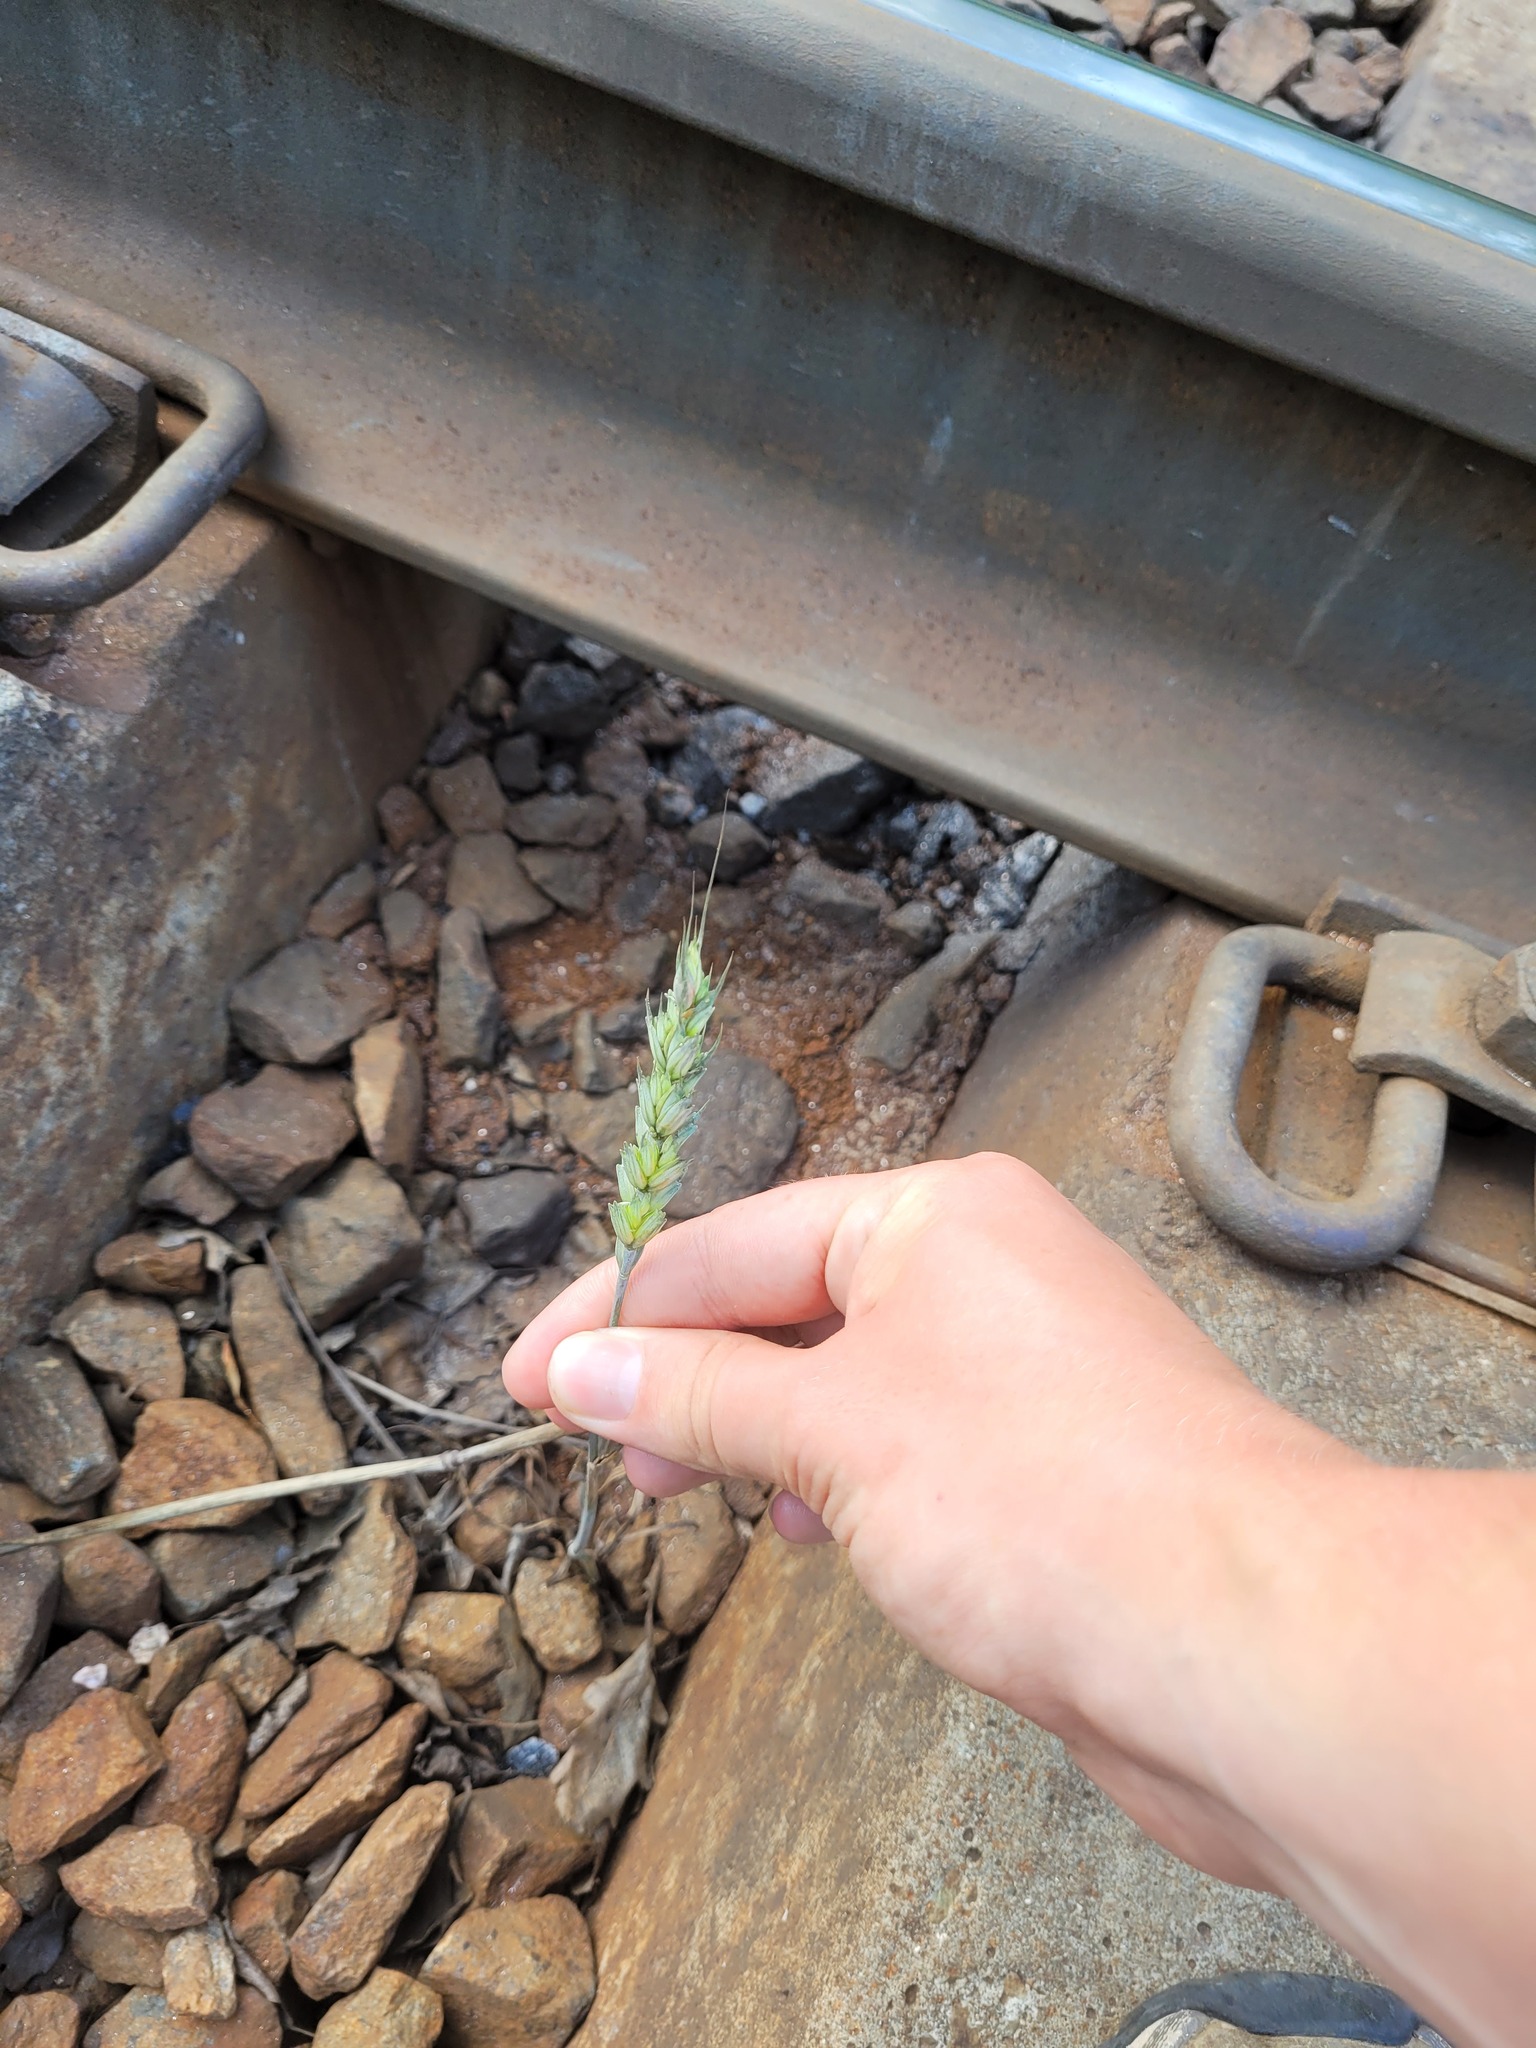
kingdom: Plantae
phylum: Tracheophyta
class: Liliopsida
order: Poales
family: Poaceae
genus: Triticum
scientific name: Triticum aestivum
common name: Common wheat
